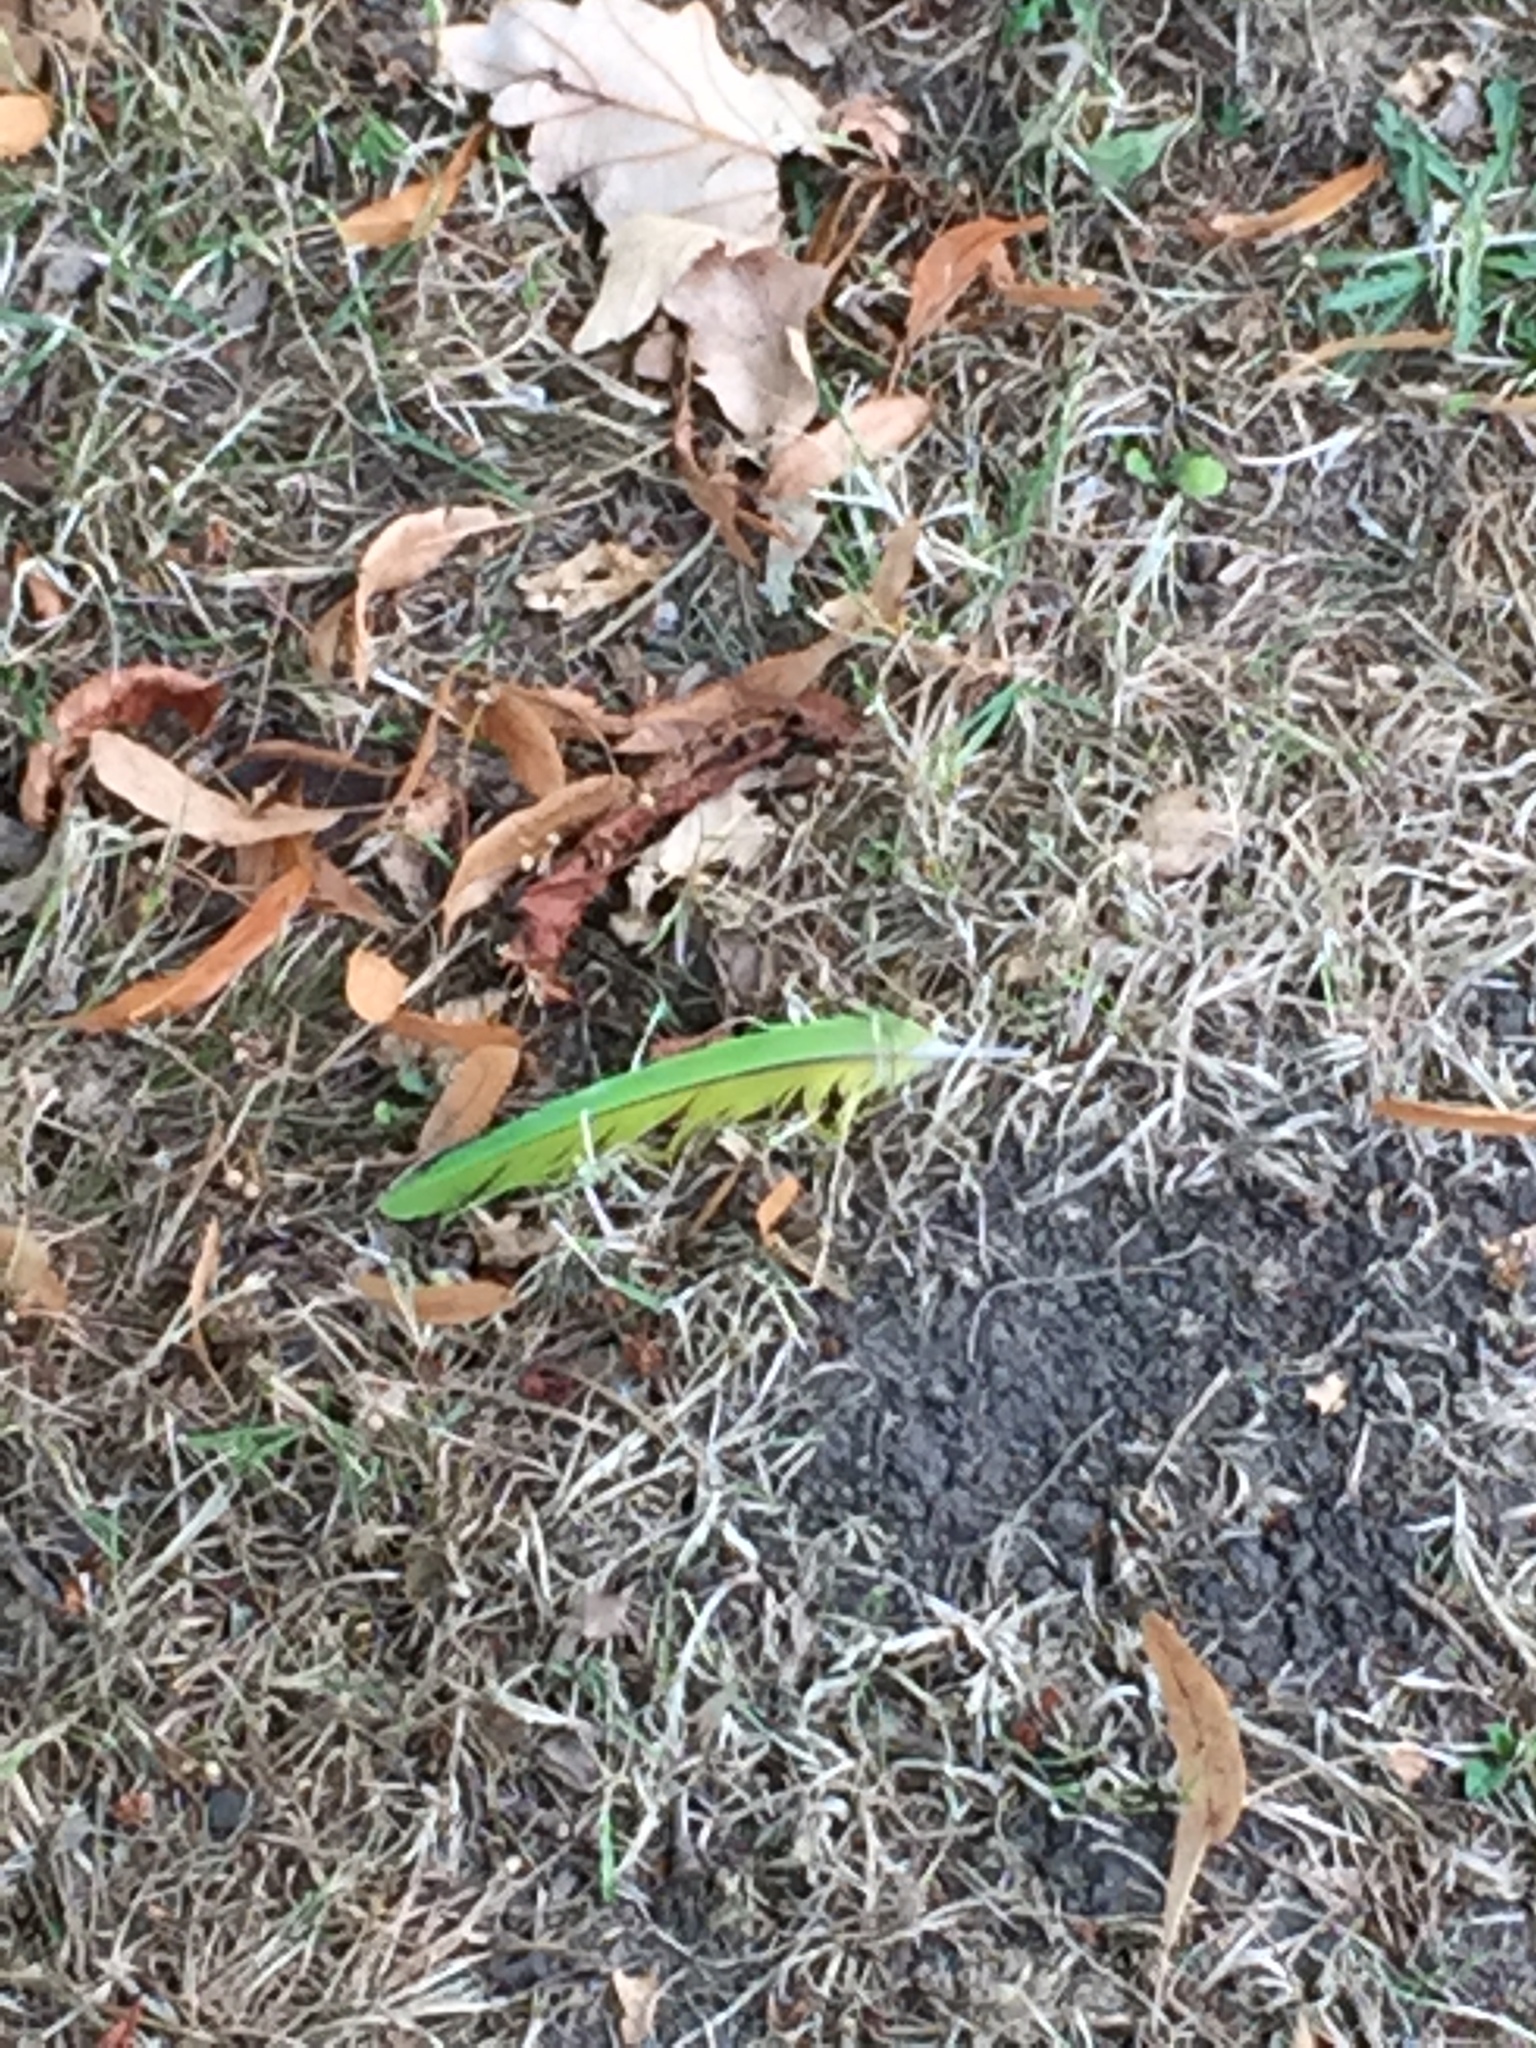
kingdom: Animalia
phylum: Chordata
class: Aves
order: Psittaciformes
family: Psittacidae
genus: Psittacula
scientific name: Psittacula krameri
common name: Rose-ringed parakeet
